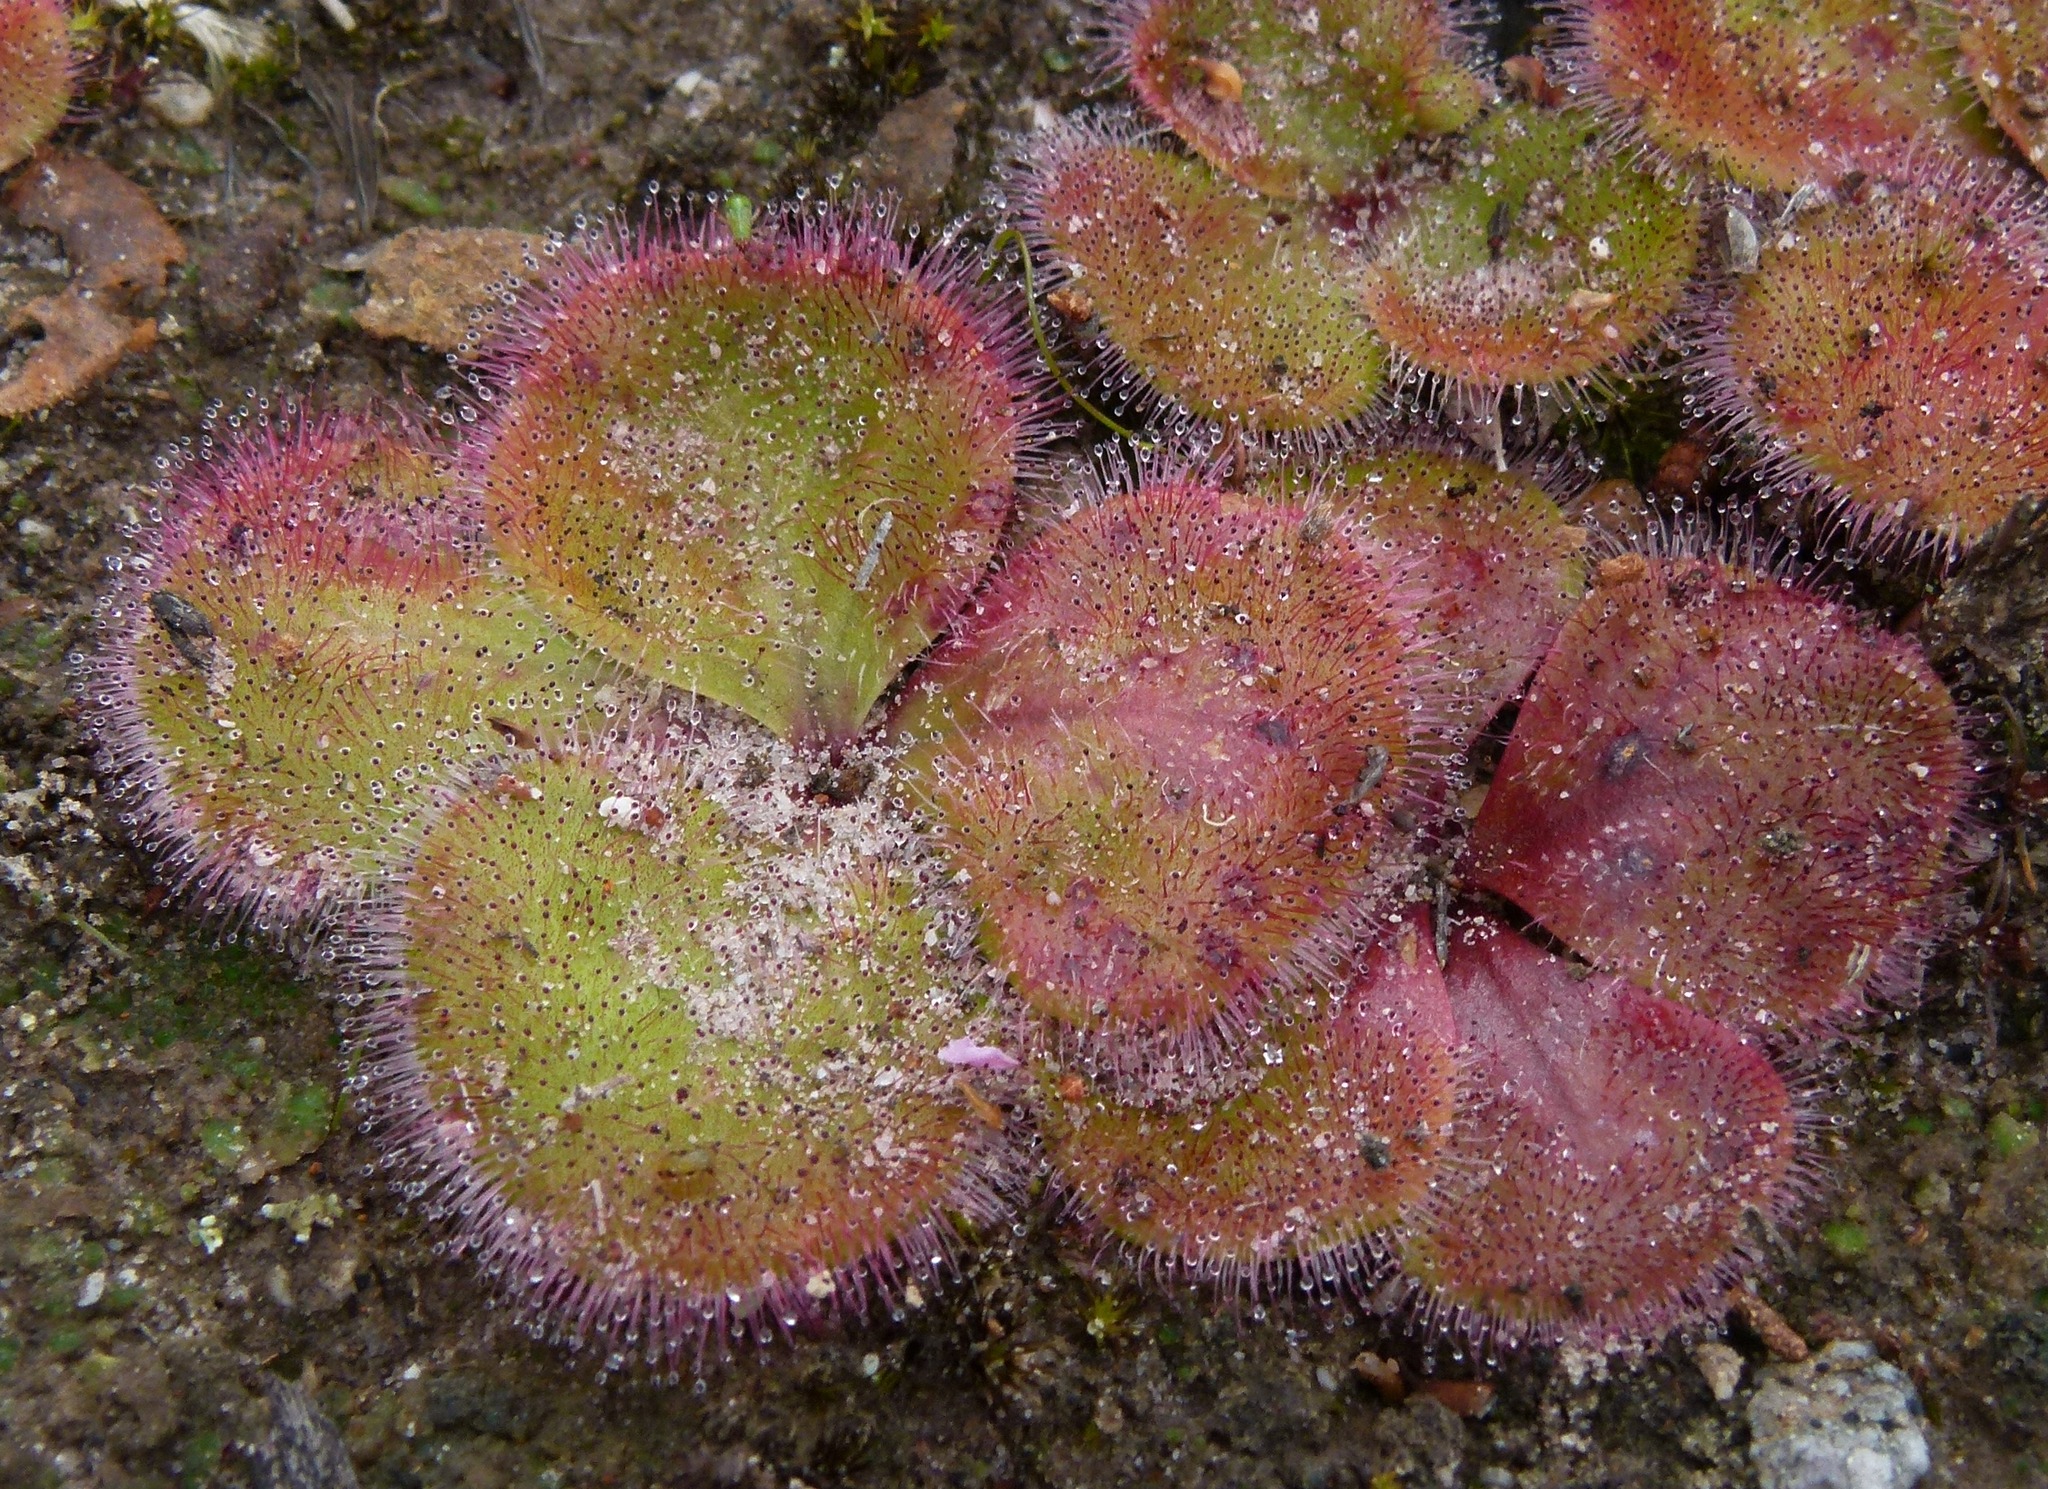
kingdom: Plantae
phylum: Tracheophyta
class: Magnoliopsida
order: Caryophyllales
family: Droseraceae
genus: Drosera
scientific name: Drosera erythrorhiza
